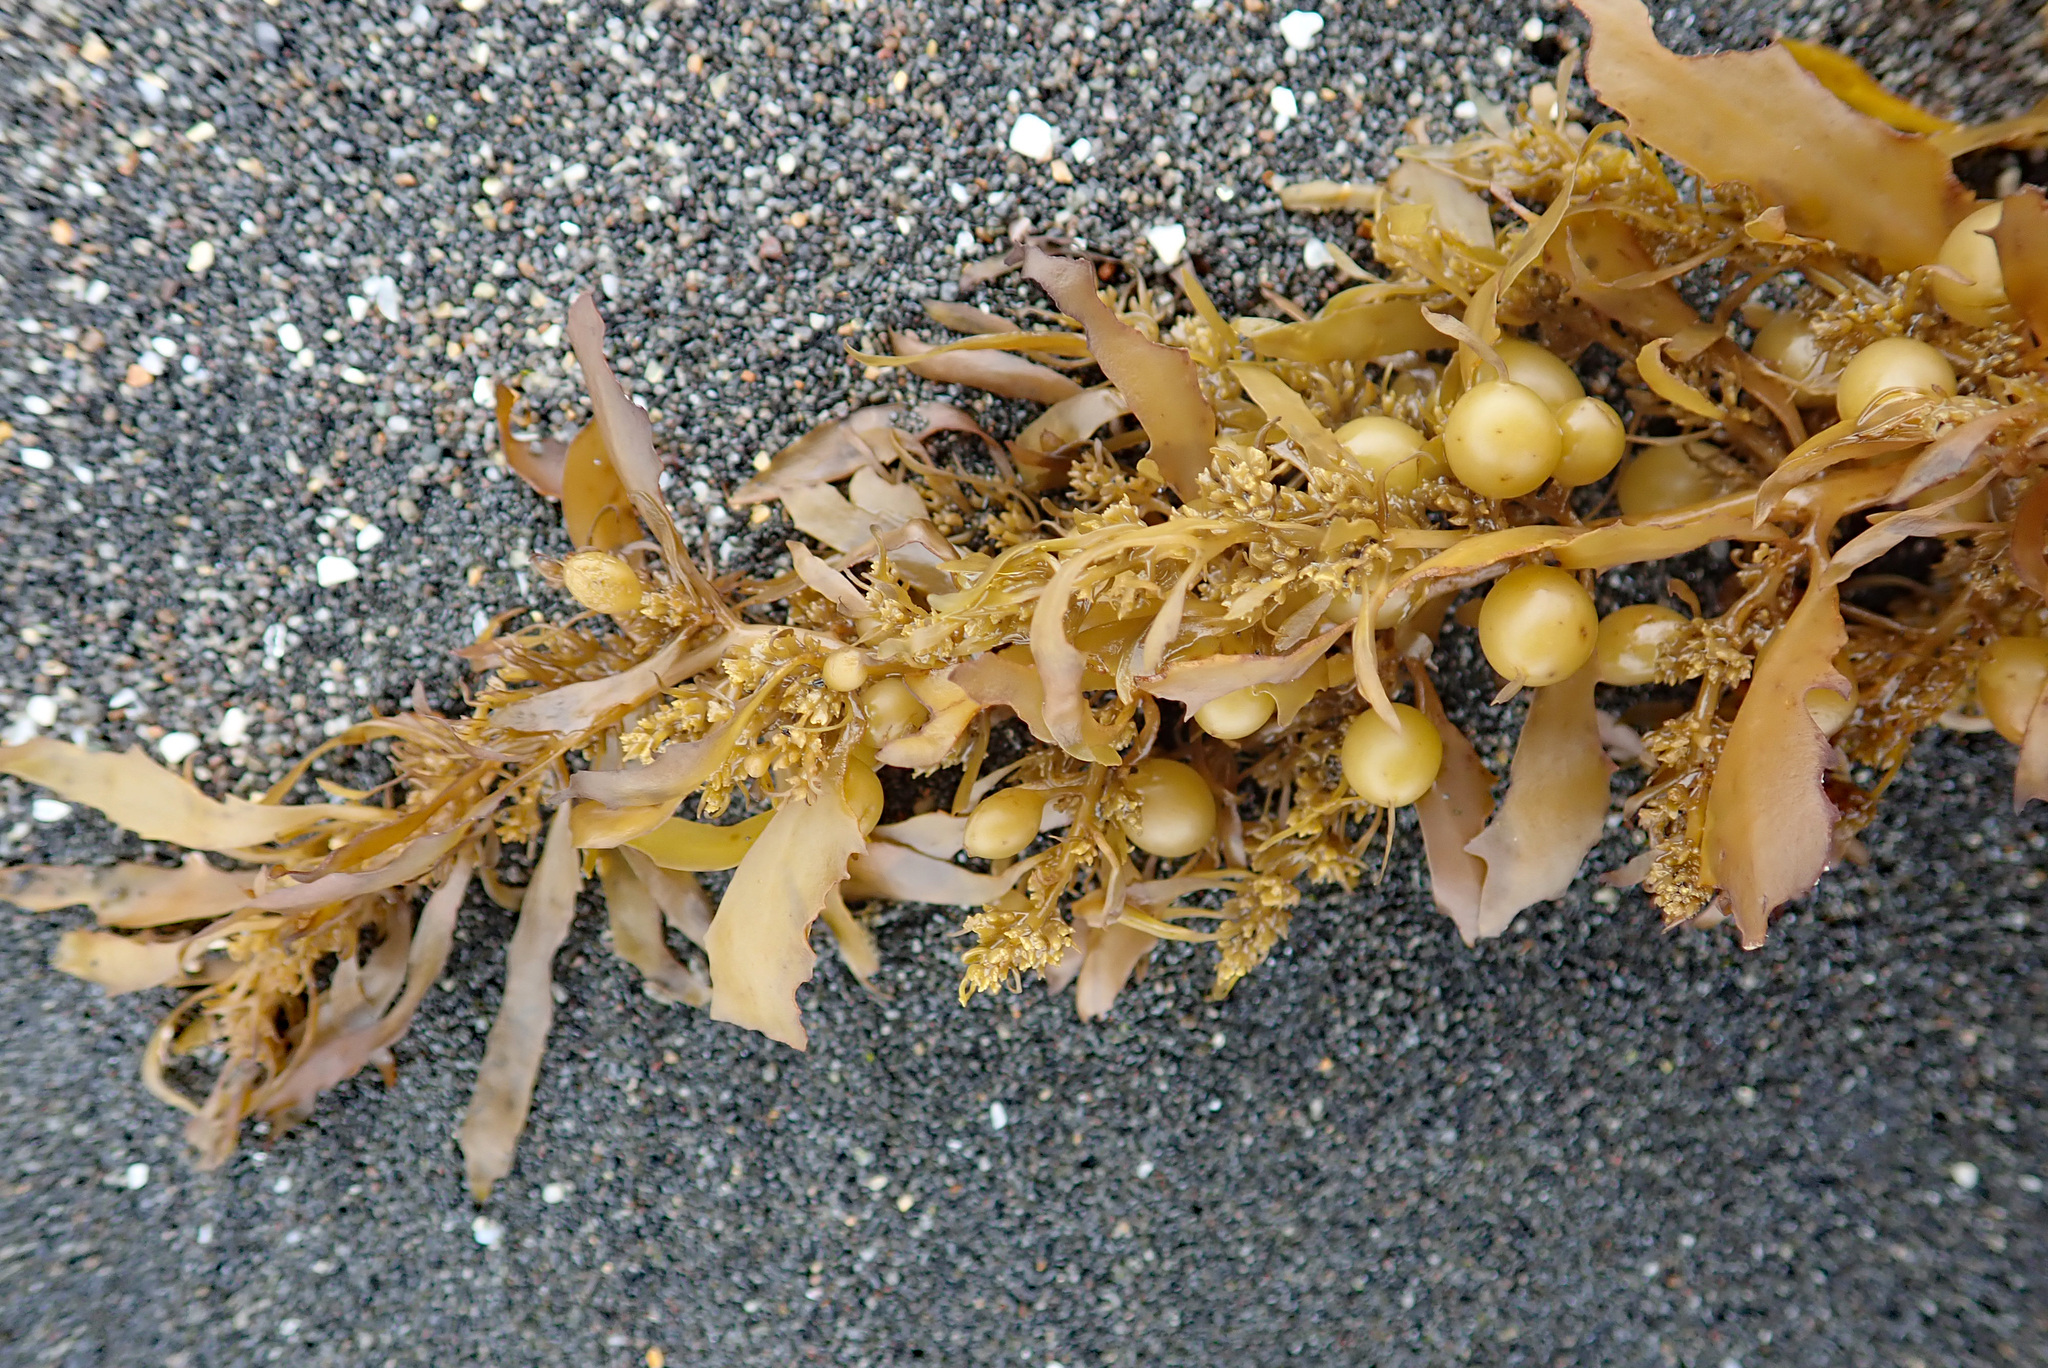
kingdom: Chromista
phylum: Ochrophyta
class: Phaeophyceae
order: Fucales
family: Sargassaceae
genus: Sargassum
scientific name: Sargassum sinclairii
